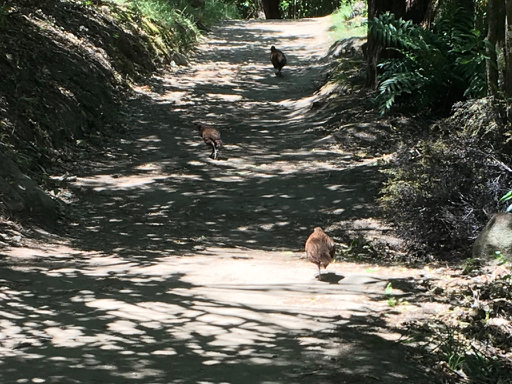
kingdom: Animalia
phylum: Chordata
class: Aves
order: Gruiformes
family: Rallidae
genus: Gallirallus
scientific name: Gallirallus australis
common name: Weka
